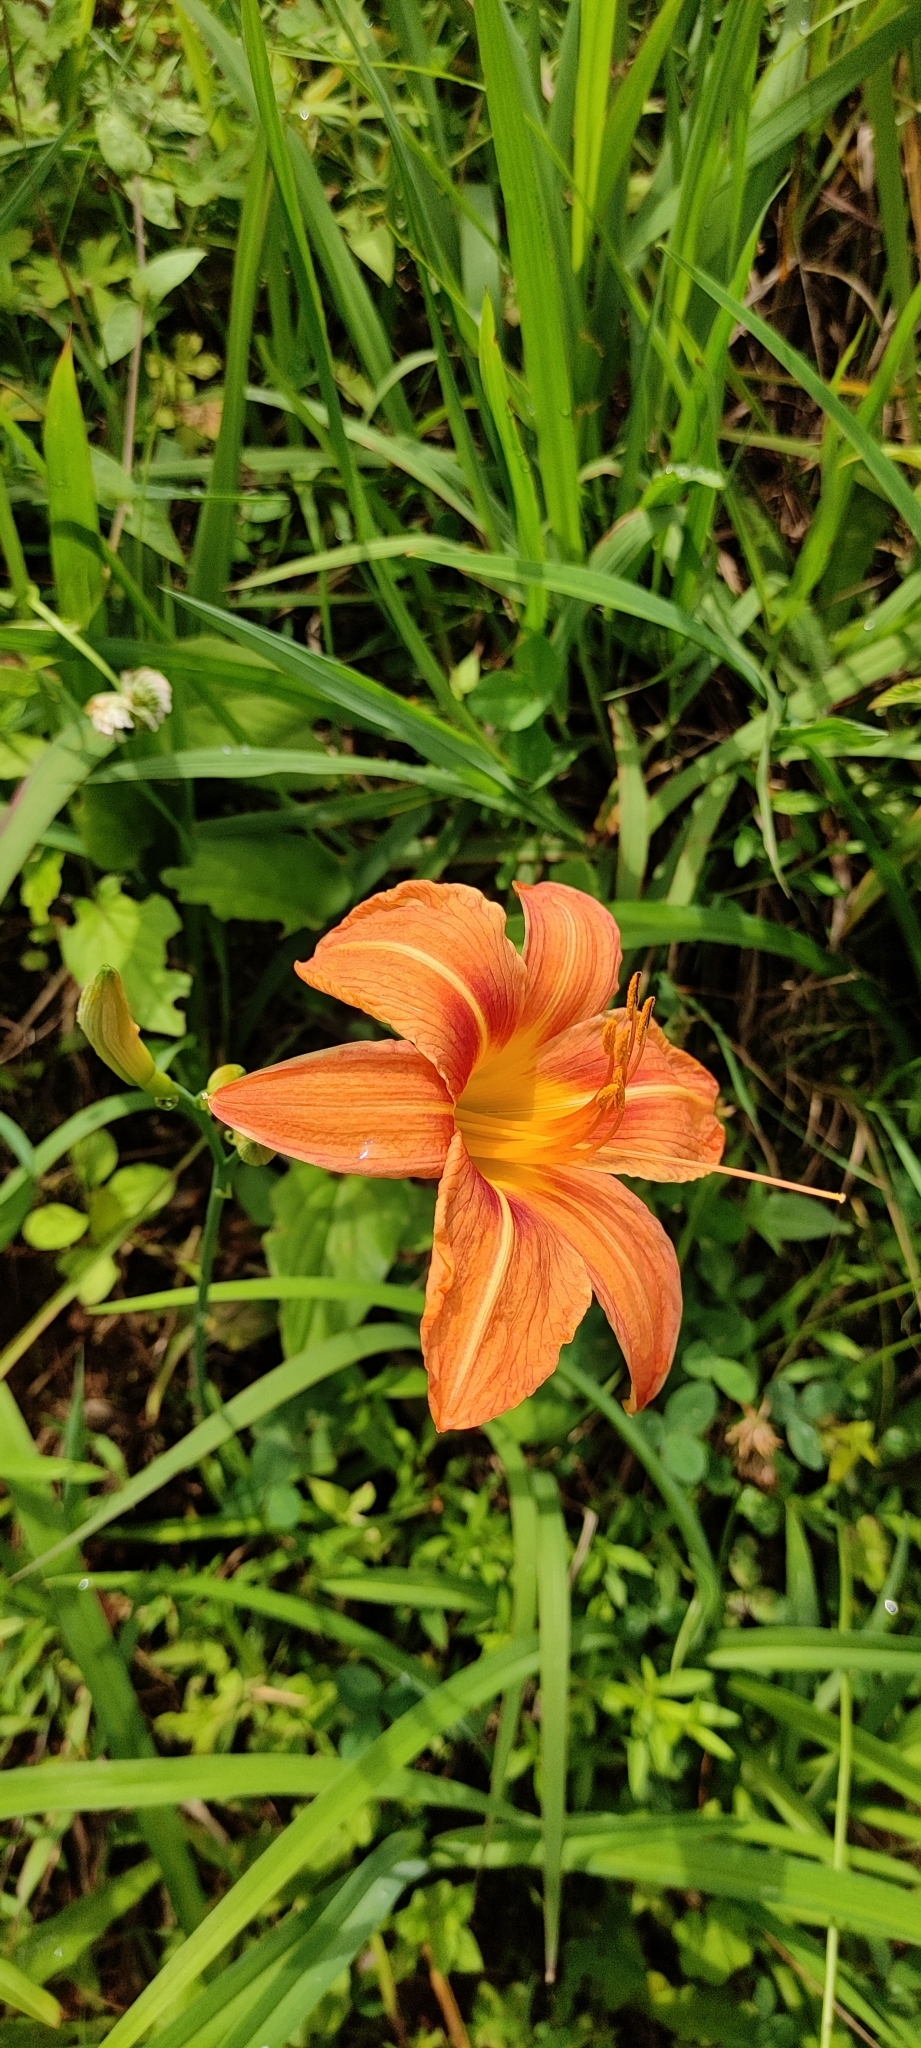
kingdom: Plantae
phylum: Tracheophyta
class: Liliopsida
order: Asparagales
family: Asphodelaceae
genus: Hemerocallis
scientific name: Hemerocallis fulva
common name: Orange day-lily
